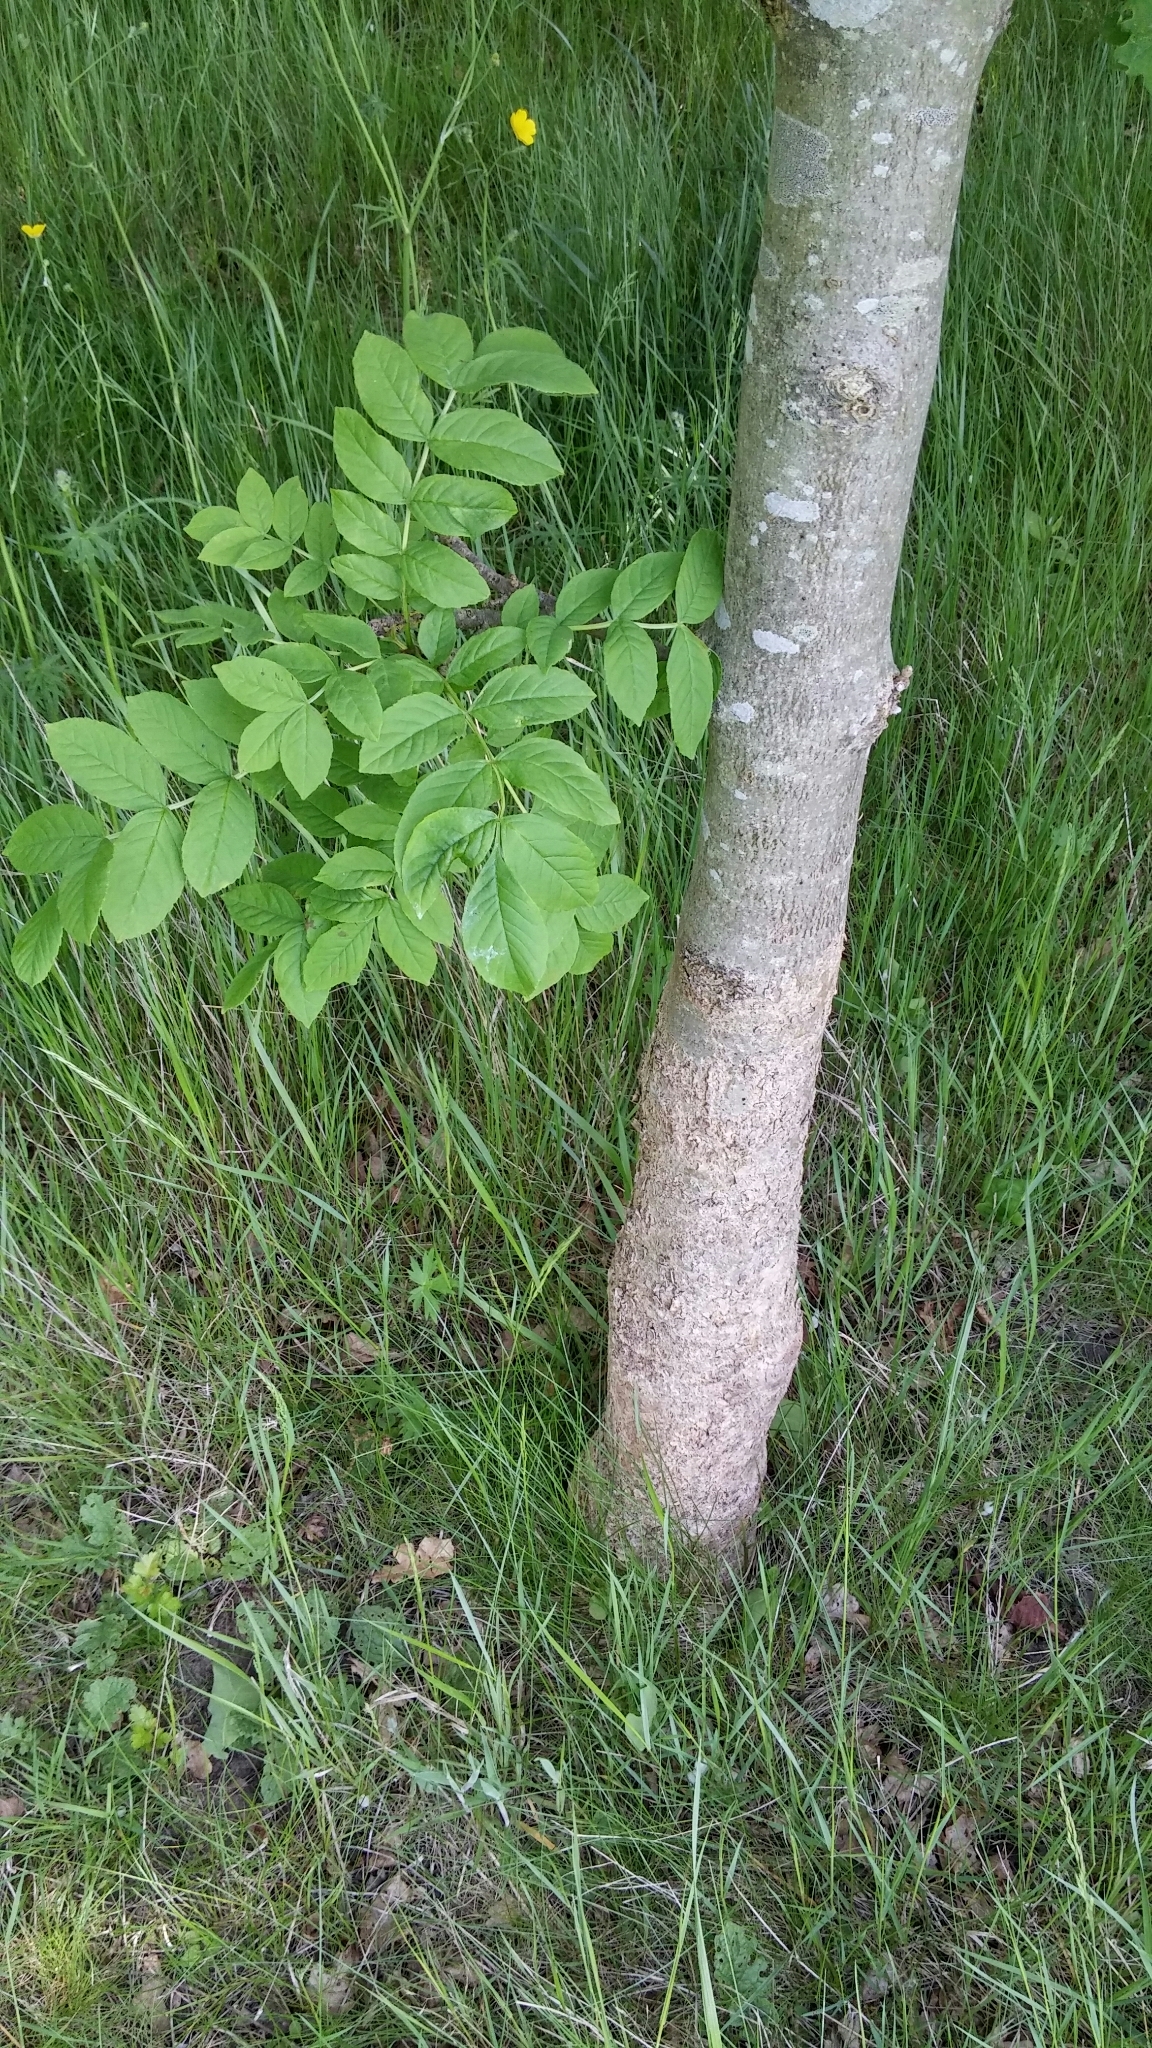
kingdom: Plantae
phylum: Tracheophyta
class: Magnoliopsida
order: Lamiales
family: Oleaceae
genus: Fraxinus
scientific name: Fraxinus excelsior
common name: European ash
